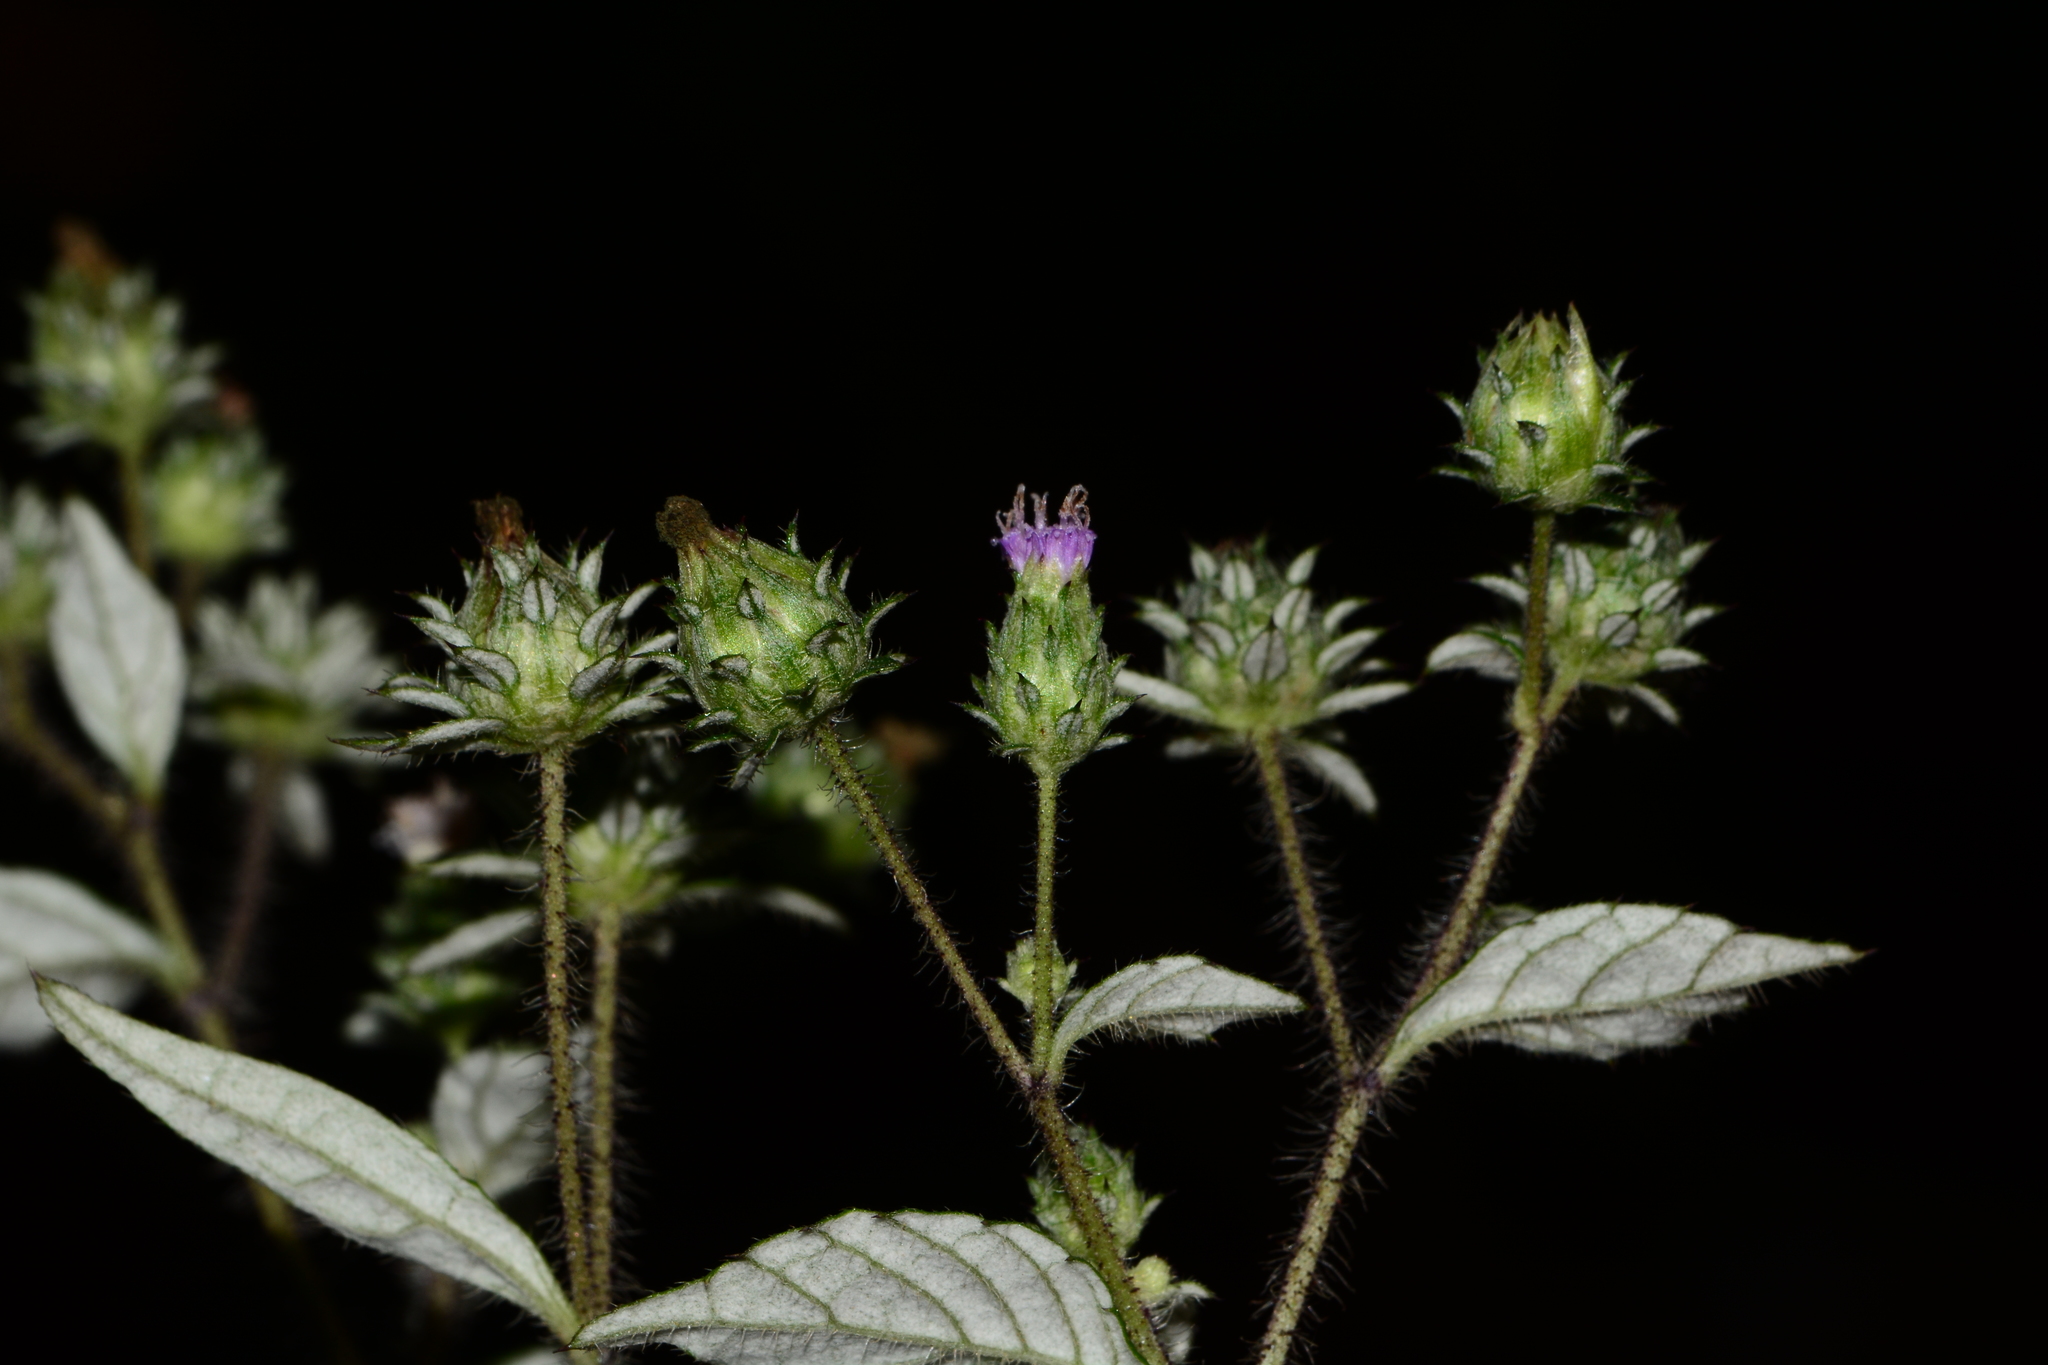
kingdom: Plantae
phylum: Tracheophyta
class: Magnoliopsida
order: Asterales
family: Asteraceae
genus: Phyllocephalum
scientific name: Phyllocephalum microcephalum
